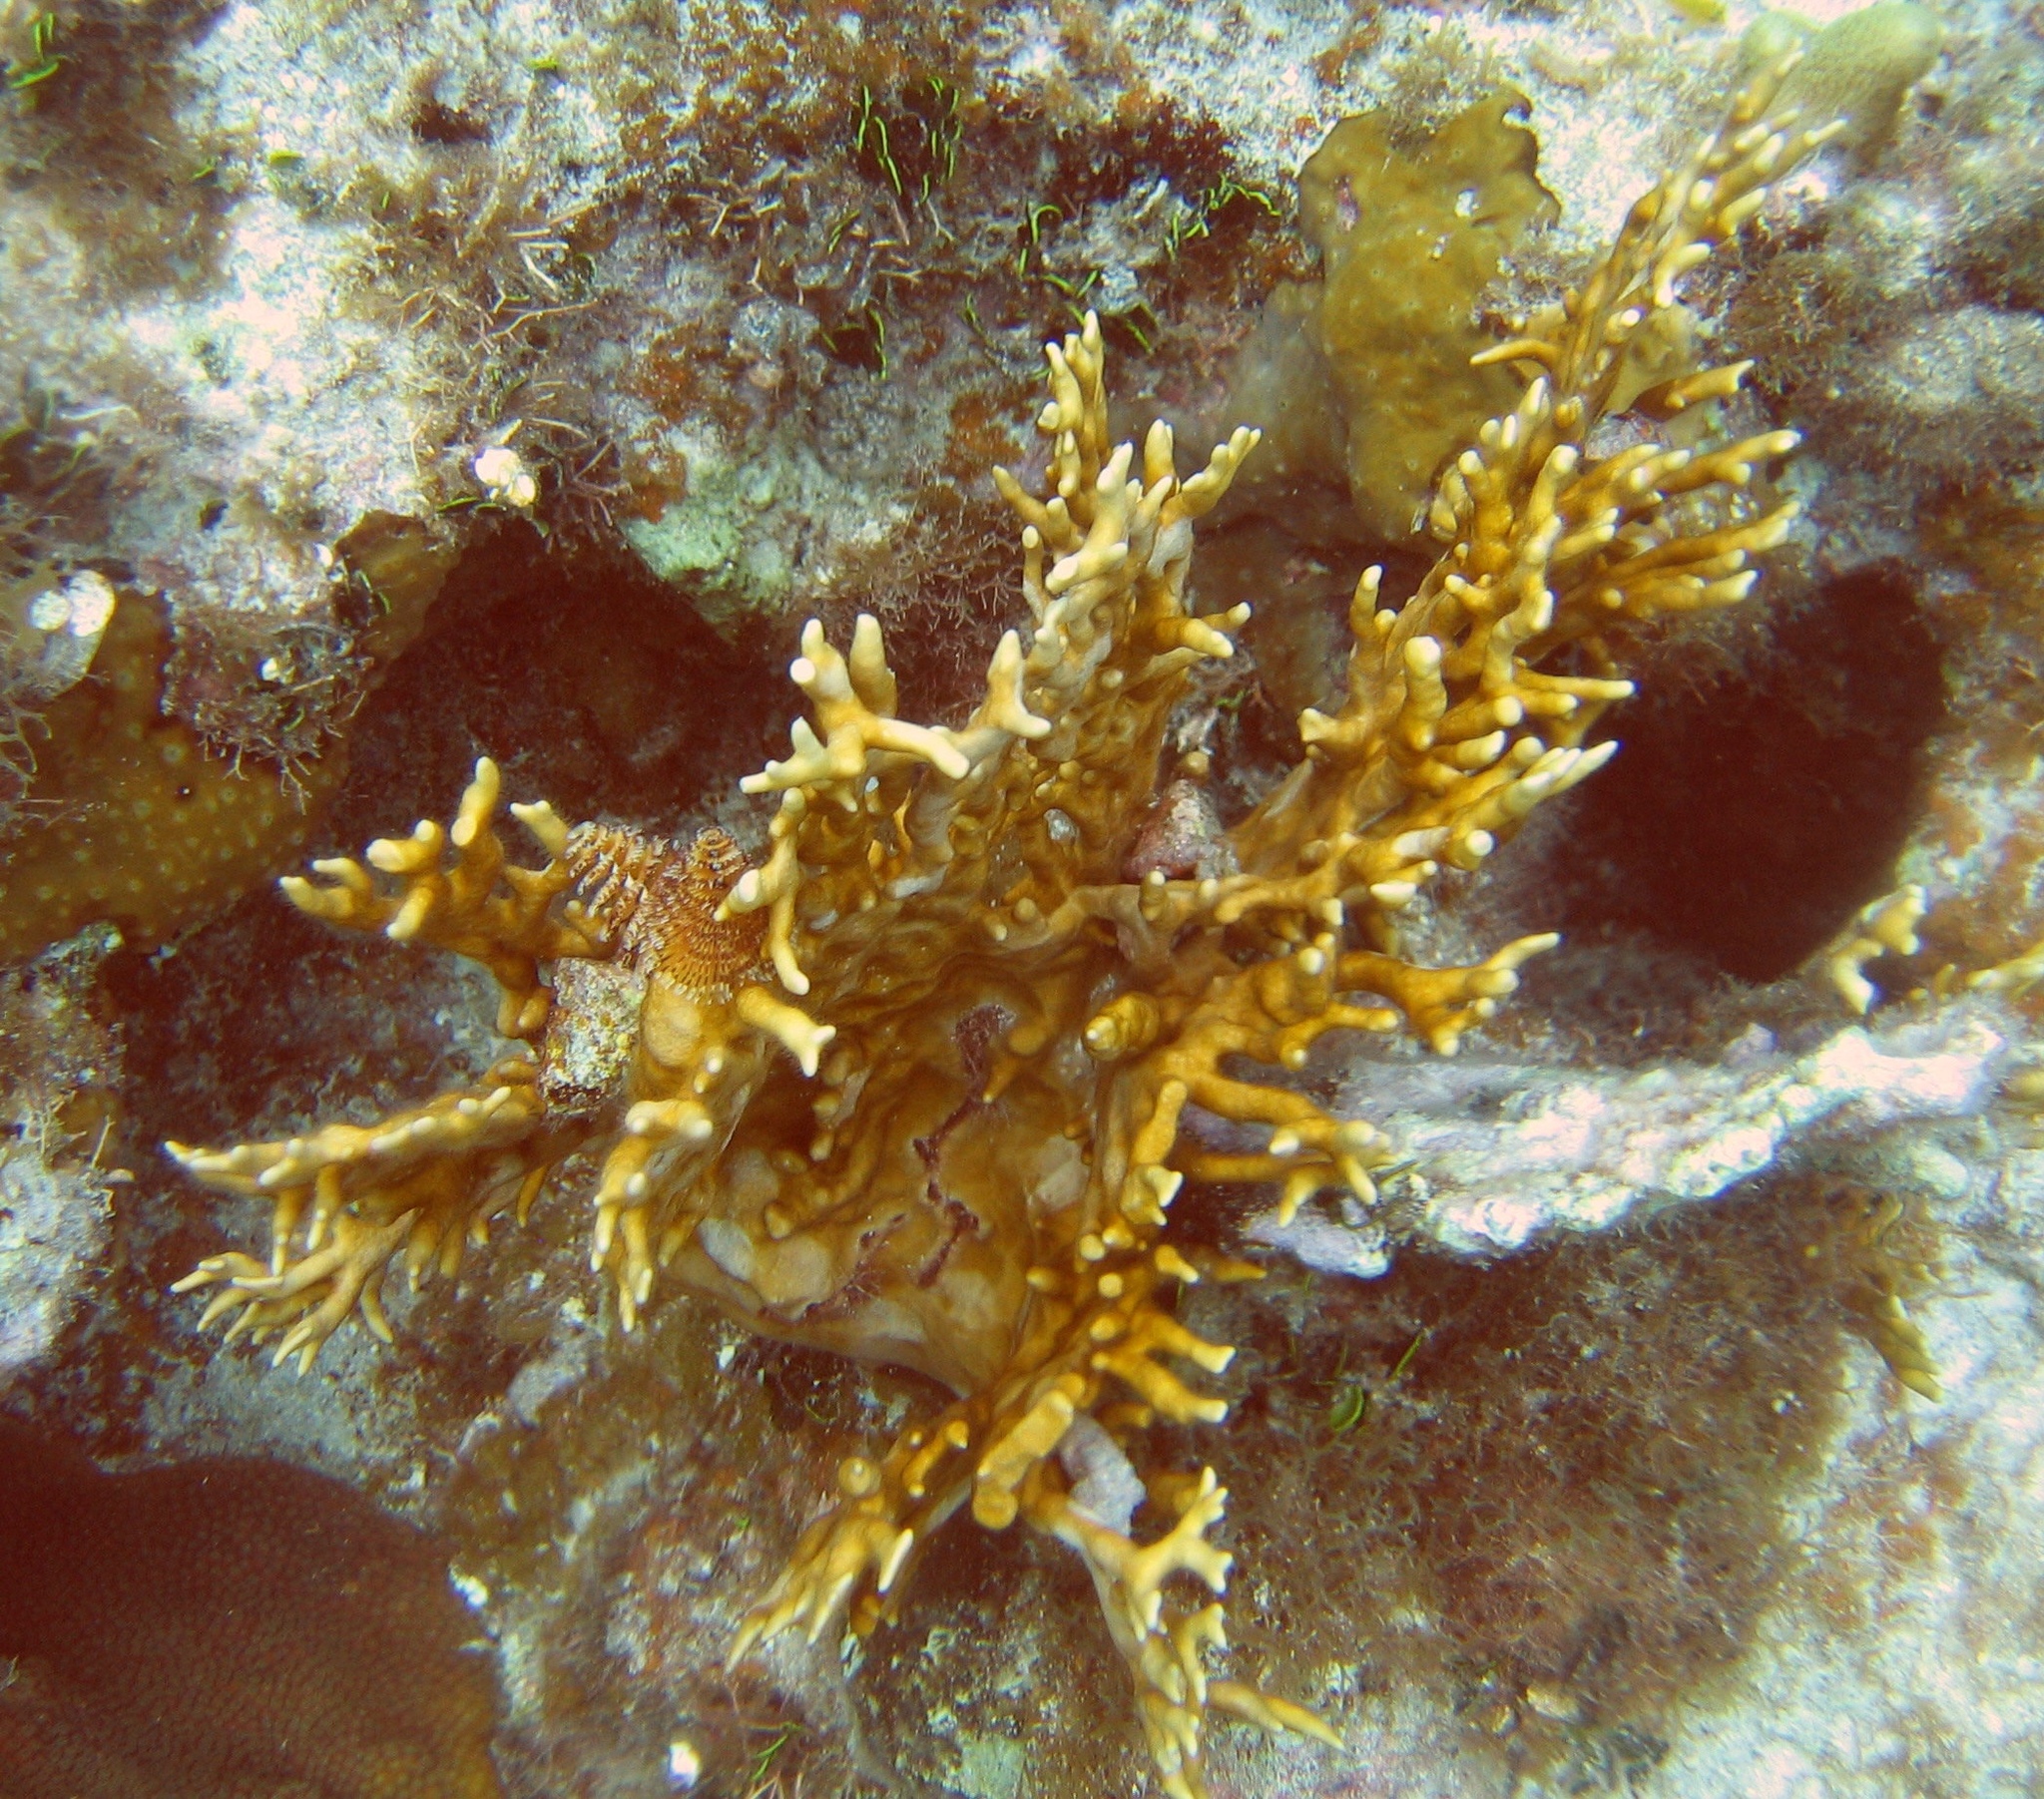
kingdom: Animalia
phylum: Cnidaria
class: Hydrozoa
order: Anthoathecata
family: Milleporidae
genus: Millepora
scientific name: Millepora alcicornis
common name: Branching fire coral
